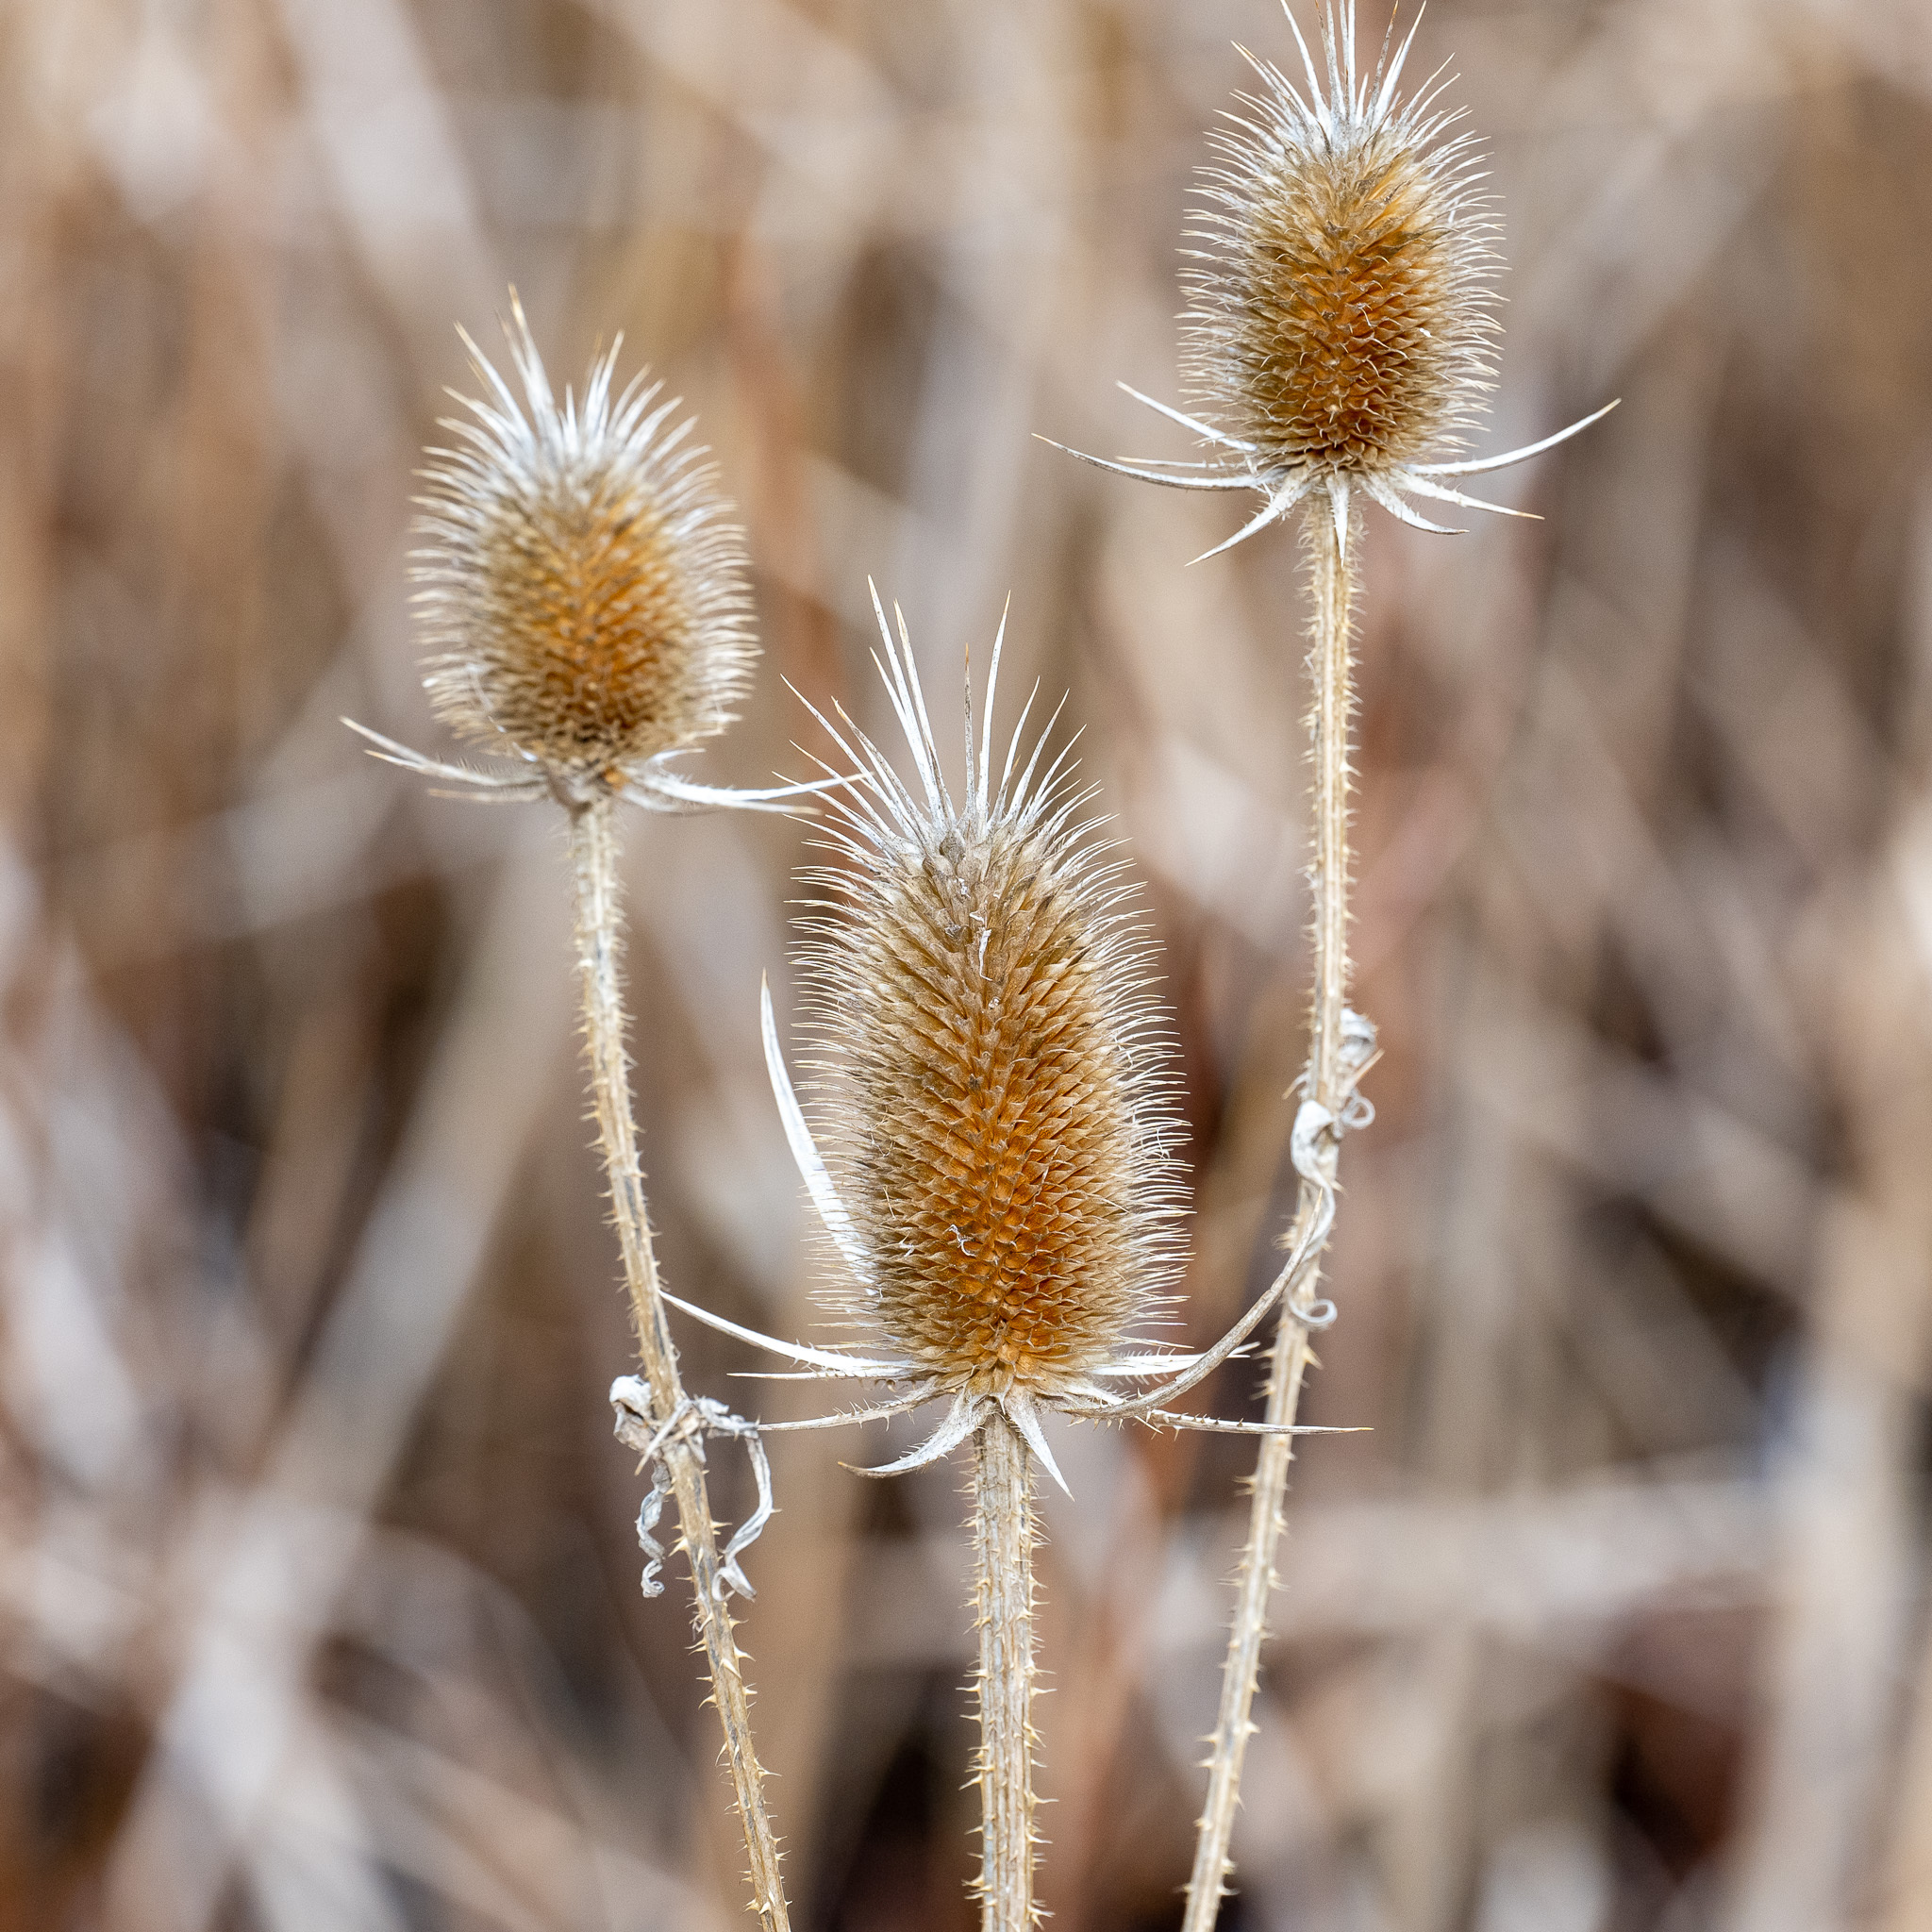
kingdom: Plantae
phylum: Tracheophyta
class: Magnoliopsida
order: Dipsacales
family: Caprifoliaceae
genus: Dipsacus
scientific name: Dipsacus laciniatus
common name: Cut-leaved teasel
